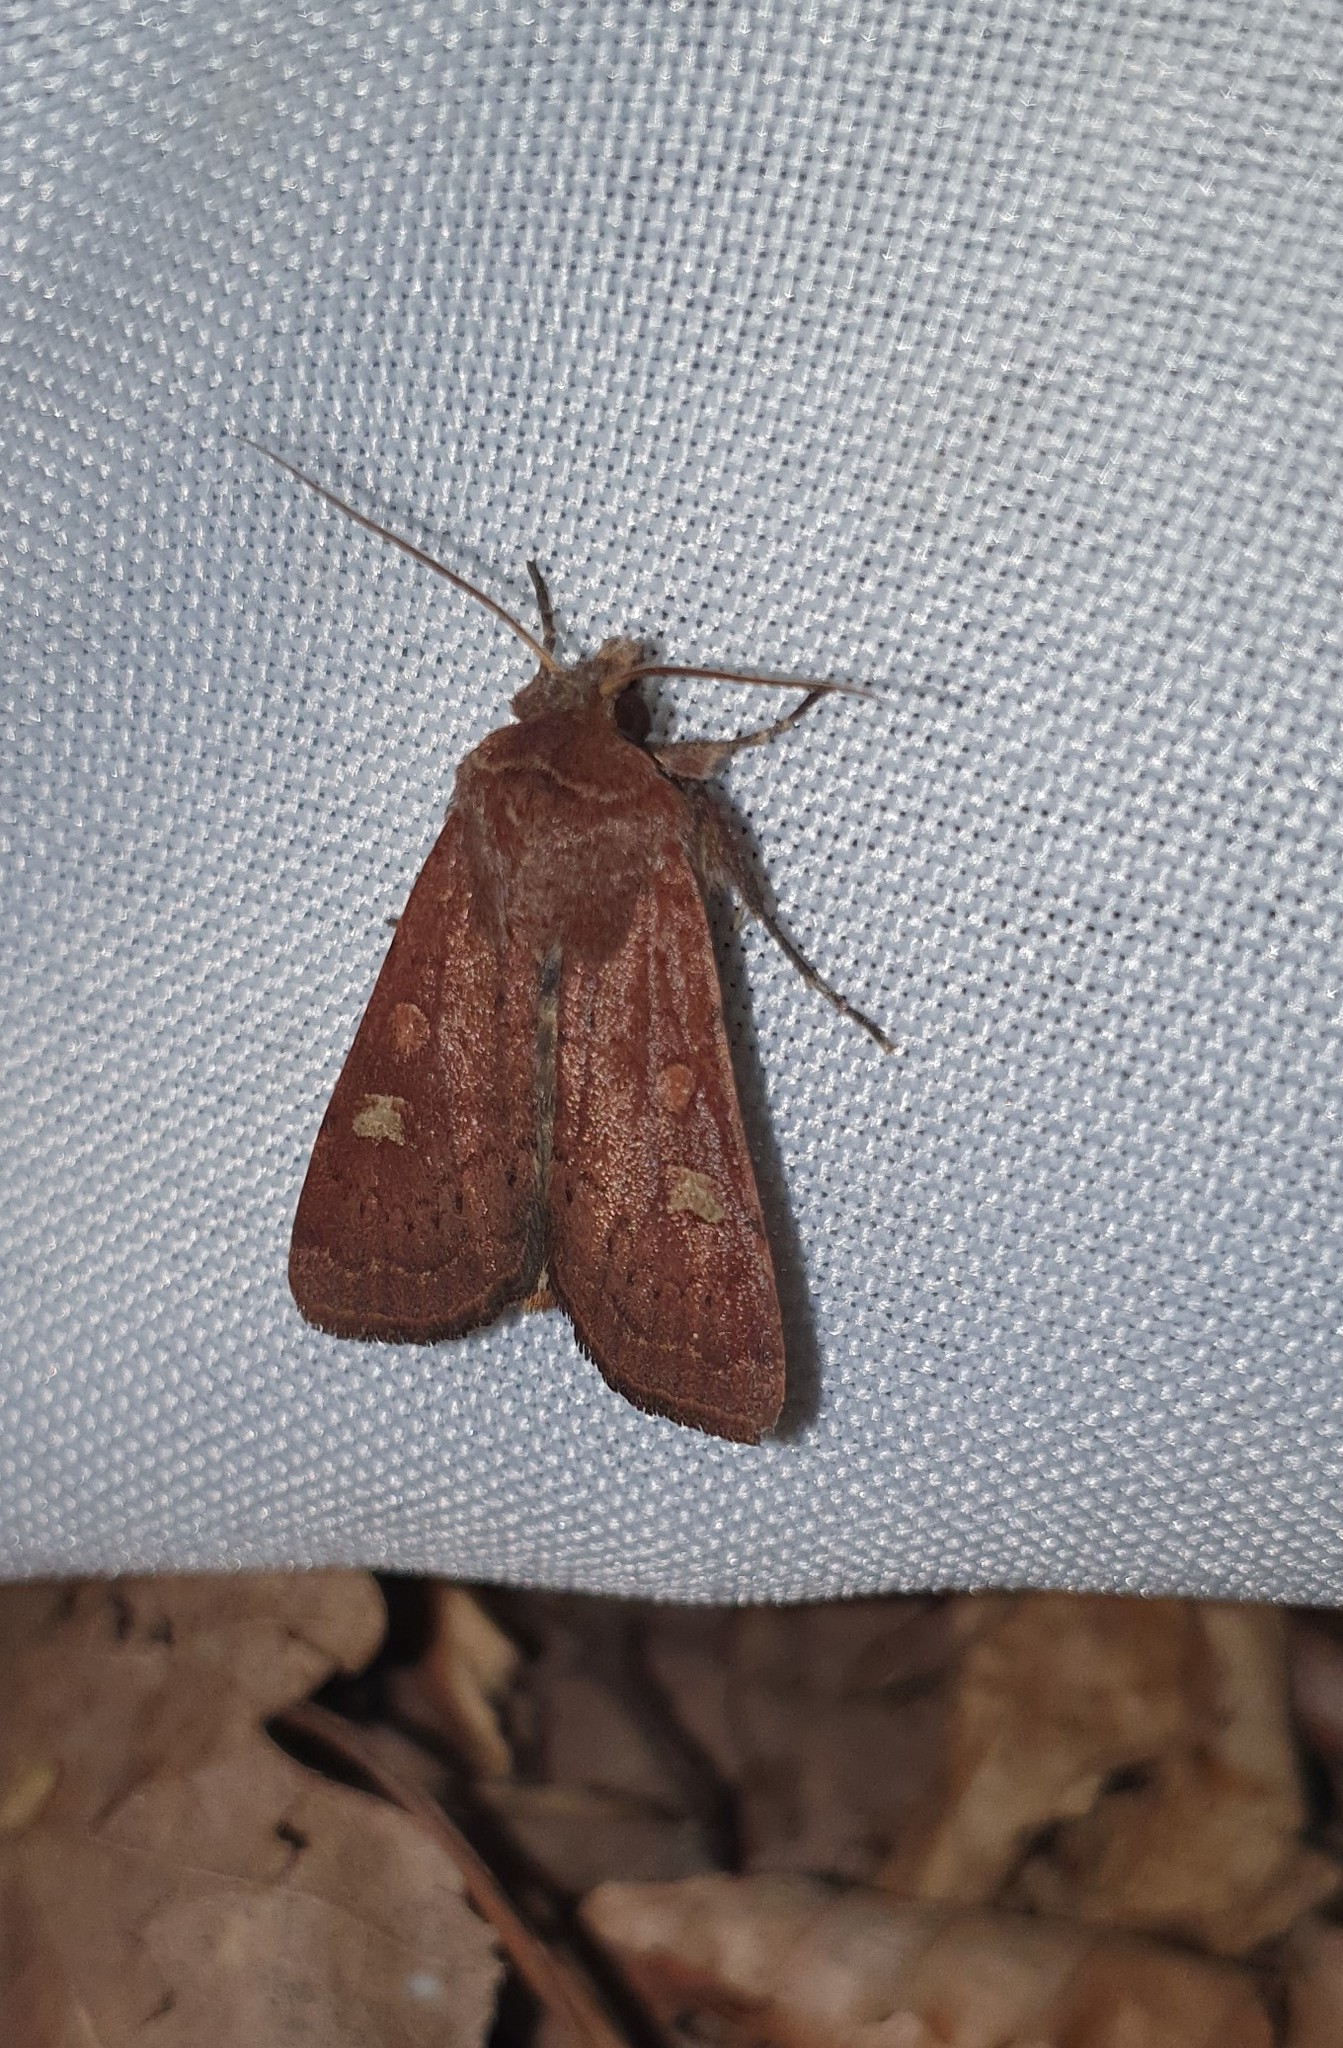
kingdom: Animalia
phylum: Arthropoda
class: Insecta
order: Lepidoptera
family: Noctuidae
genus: Xestia
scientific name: Xestia xanthographa
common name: Square-spot rustic
